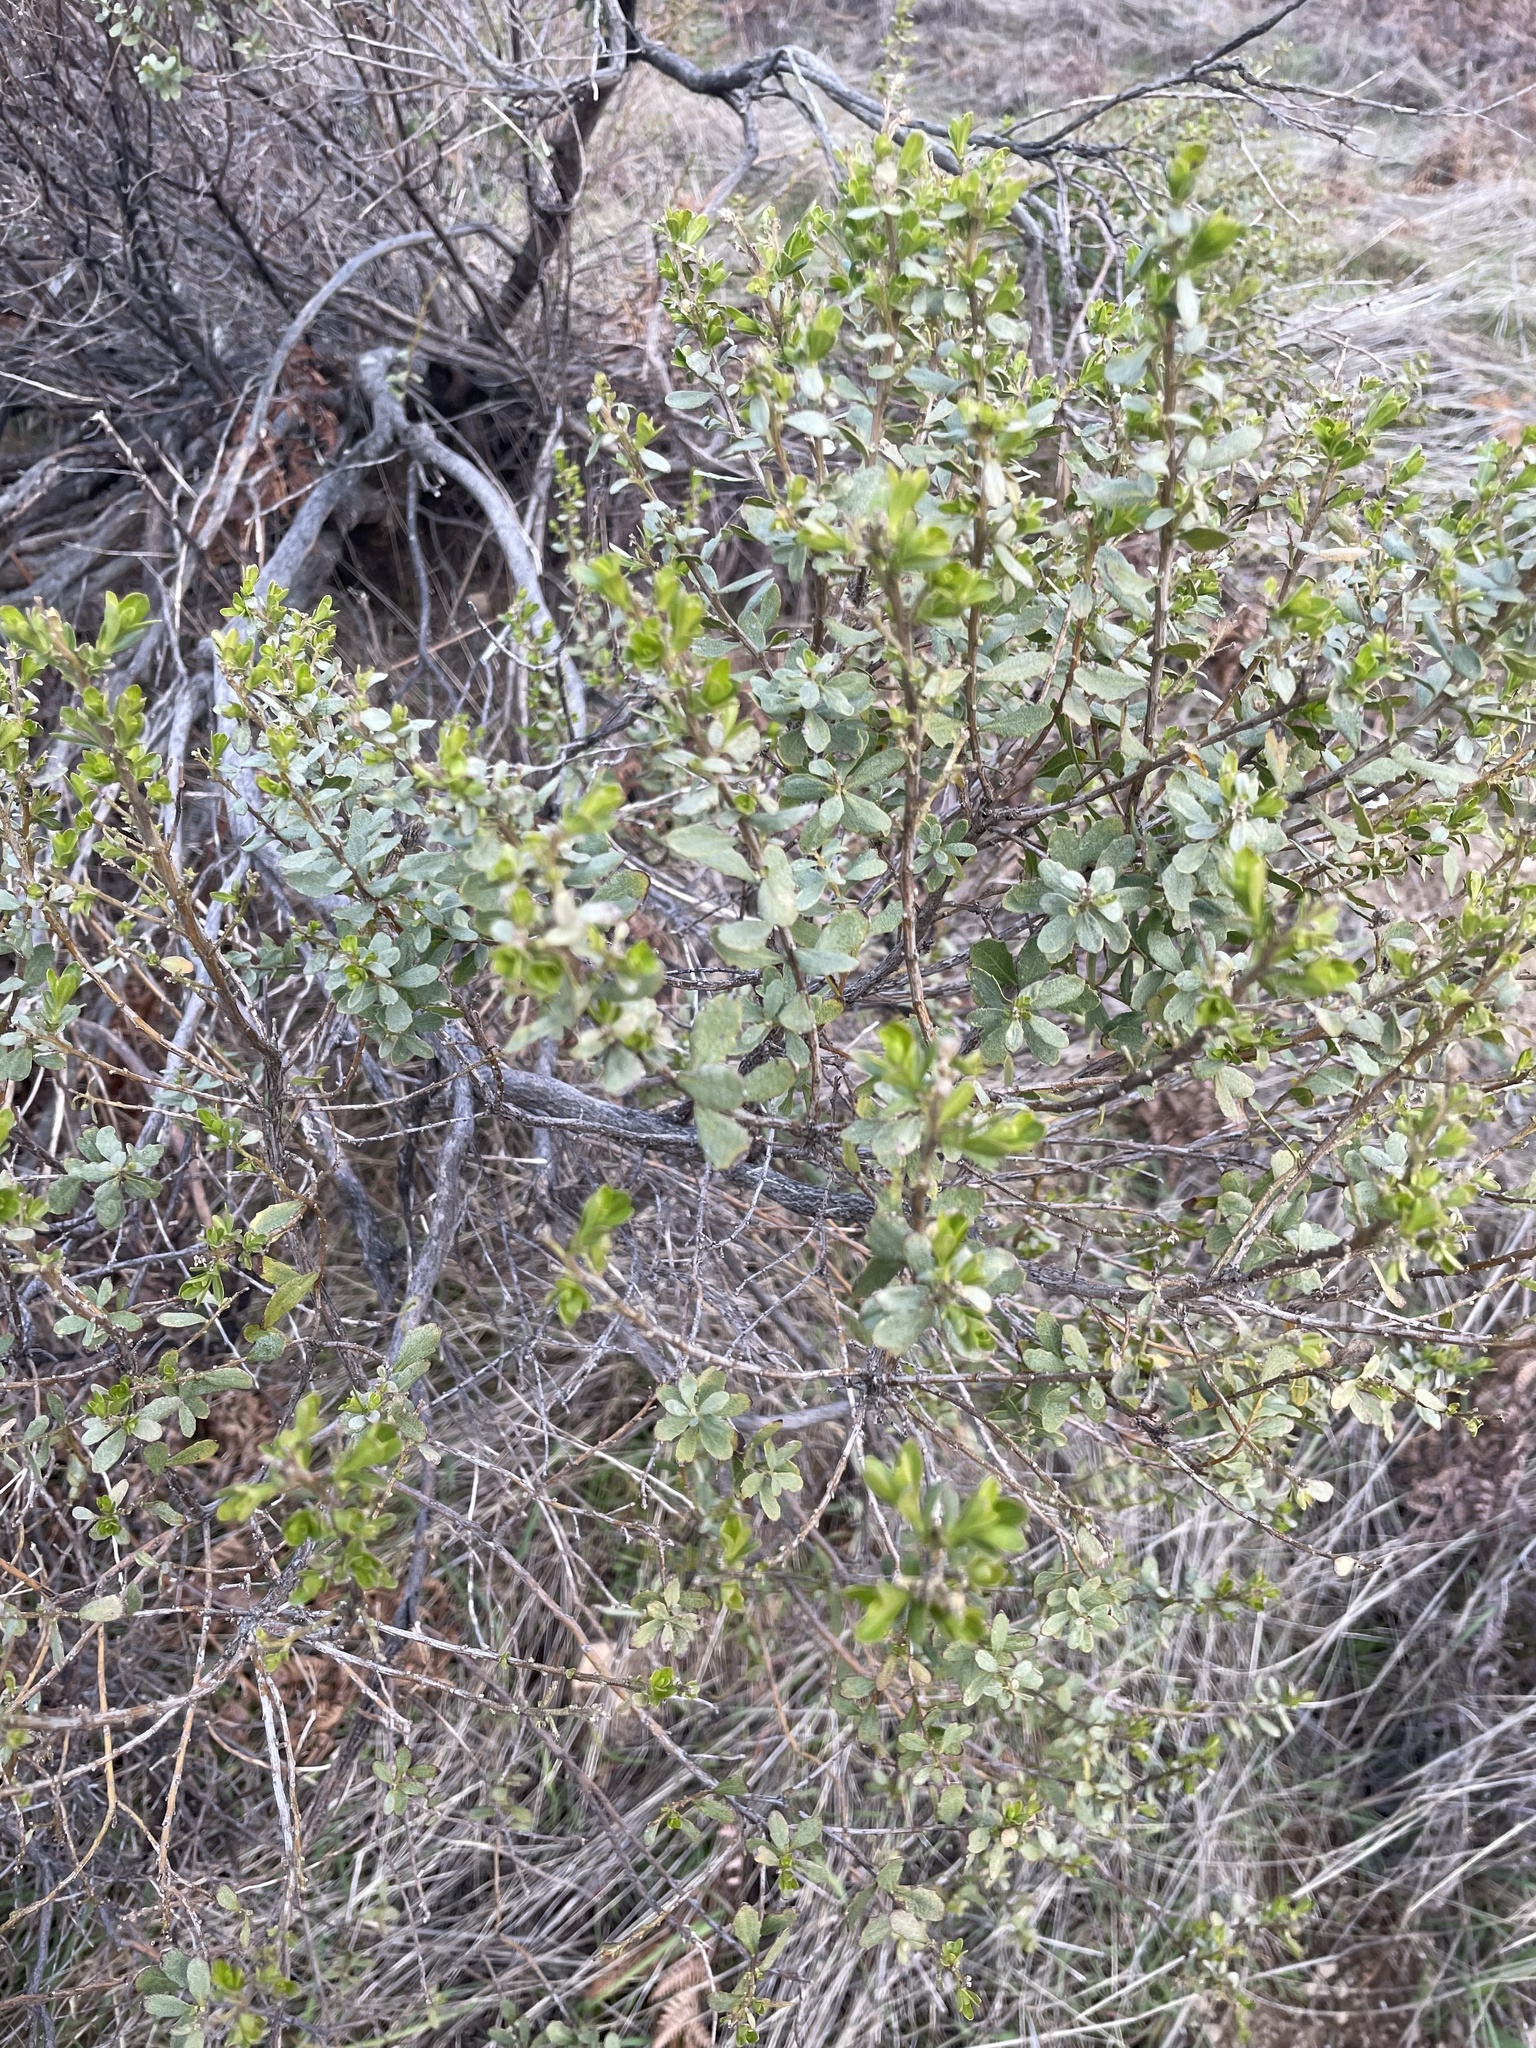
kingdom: Plantae
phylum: Tracheophyta
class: Magnoliopsida
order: Asterales
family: Asteraceae
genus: Baccharis
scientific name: Baccharis pilularis
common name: Coyotebrush
